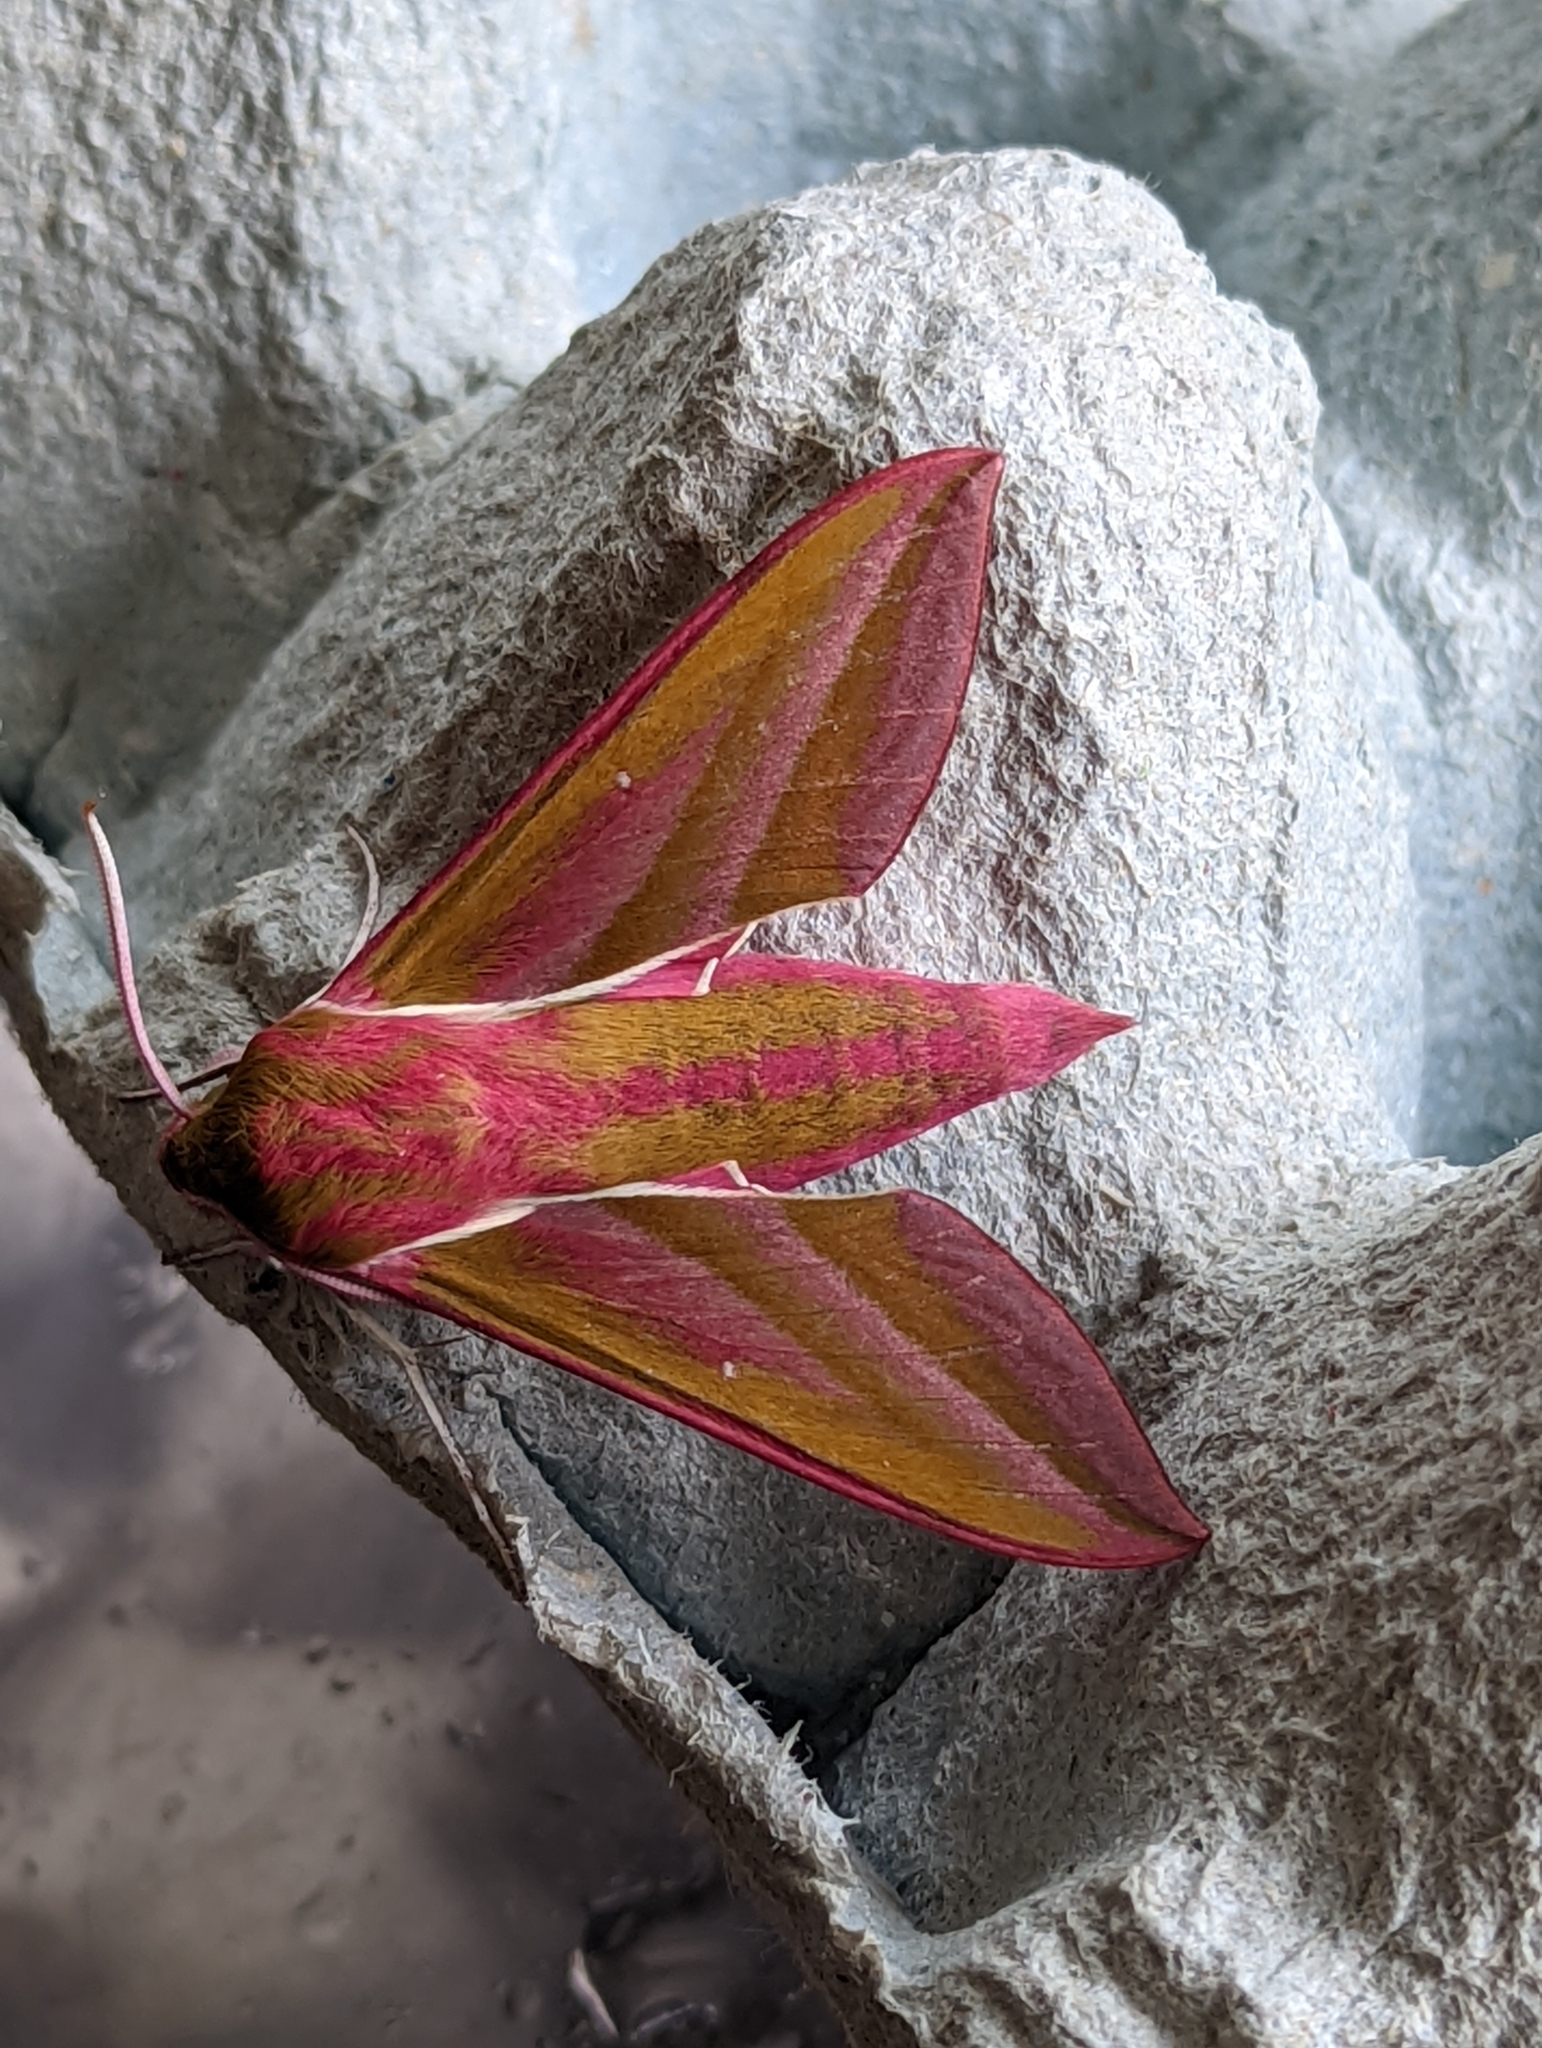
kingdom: Animalia
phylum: Arthropoda
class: Insecta
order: Lepidoptera
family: Sphingidae
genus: Deilephila
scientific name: Deilephila elpenor
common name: Elephant hawk-moth
